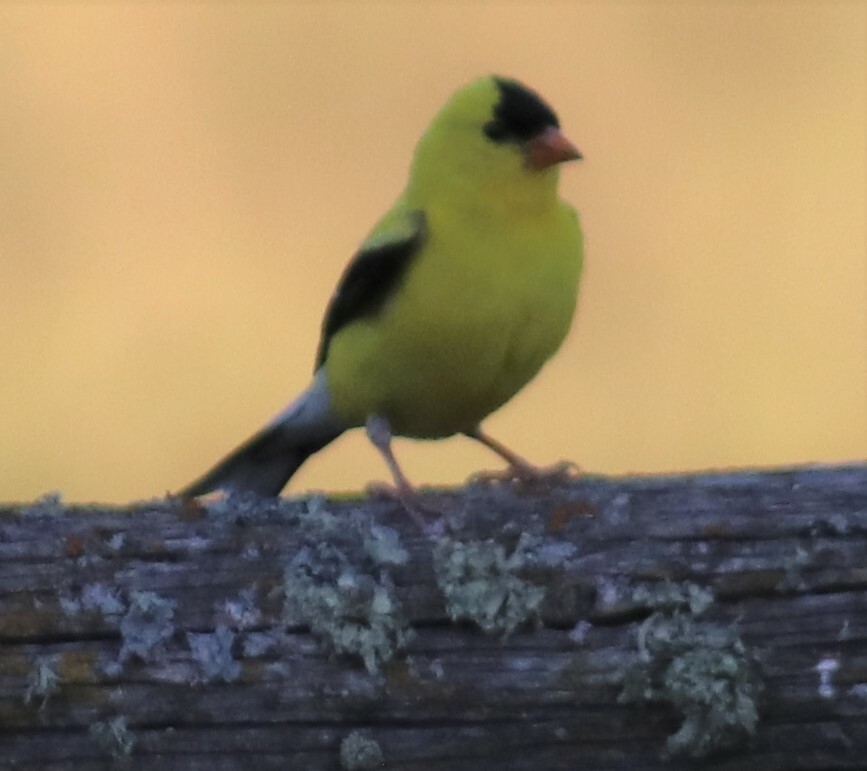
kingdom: Animalia
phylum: Chordata
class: Aves
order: Passeriformes
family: Fringillidae
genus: Spinus
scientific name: Spinus tristis
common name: American goldfinch
